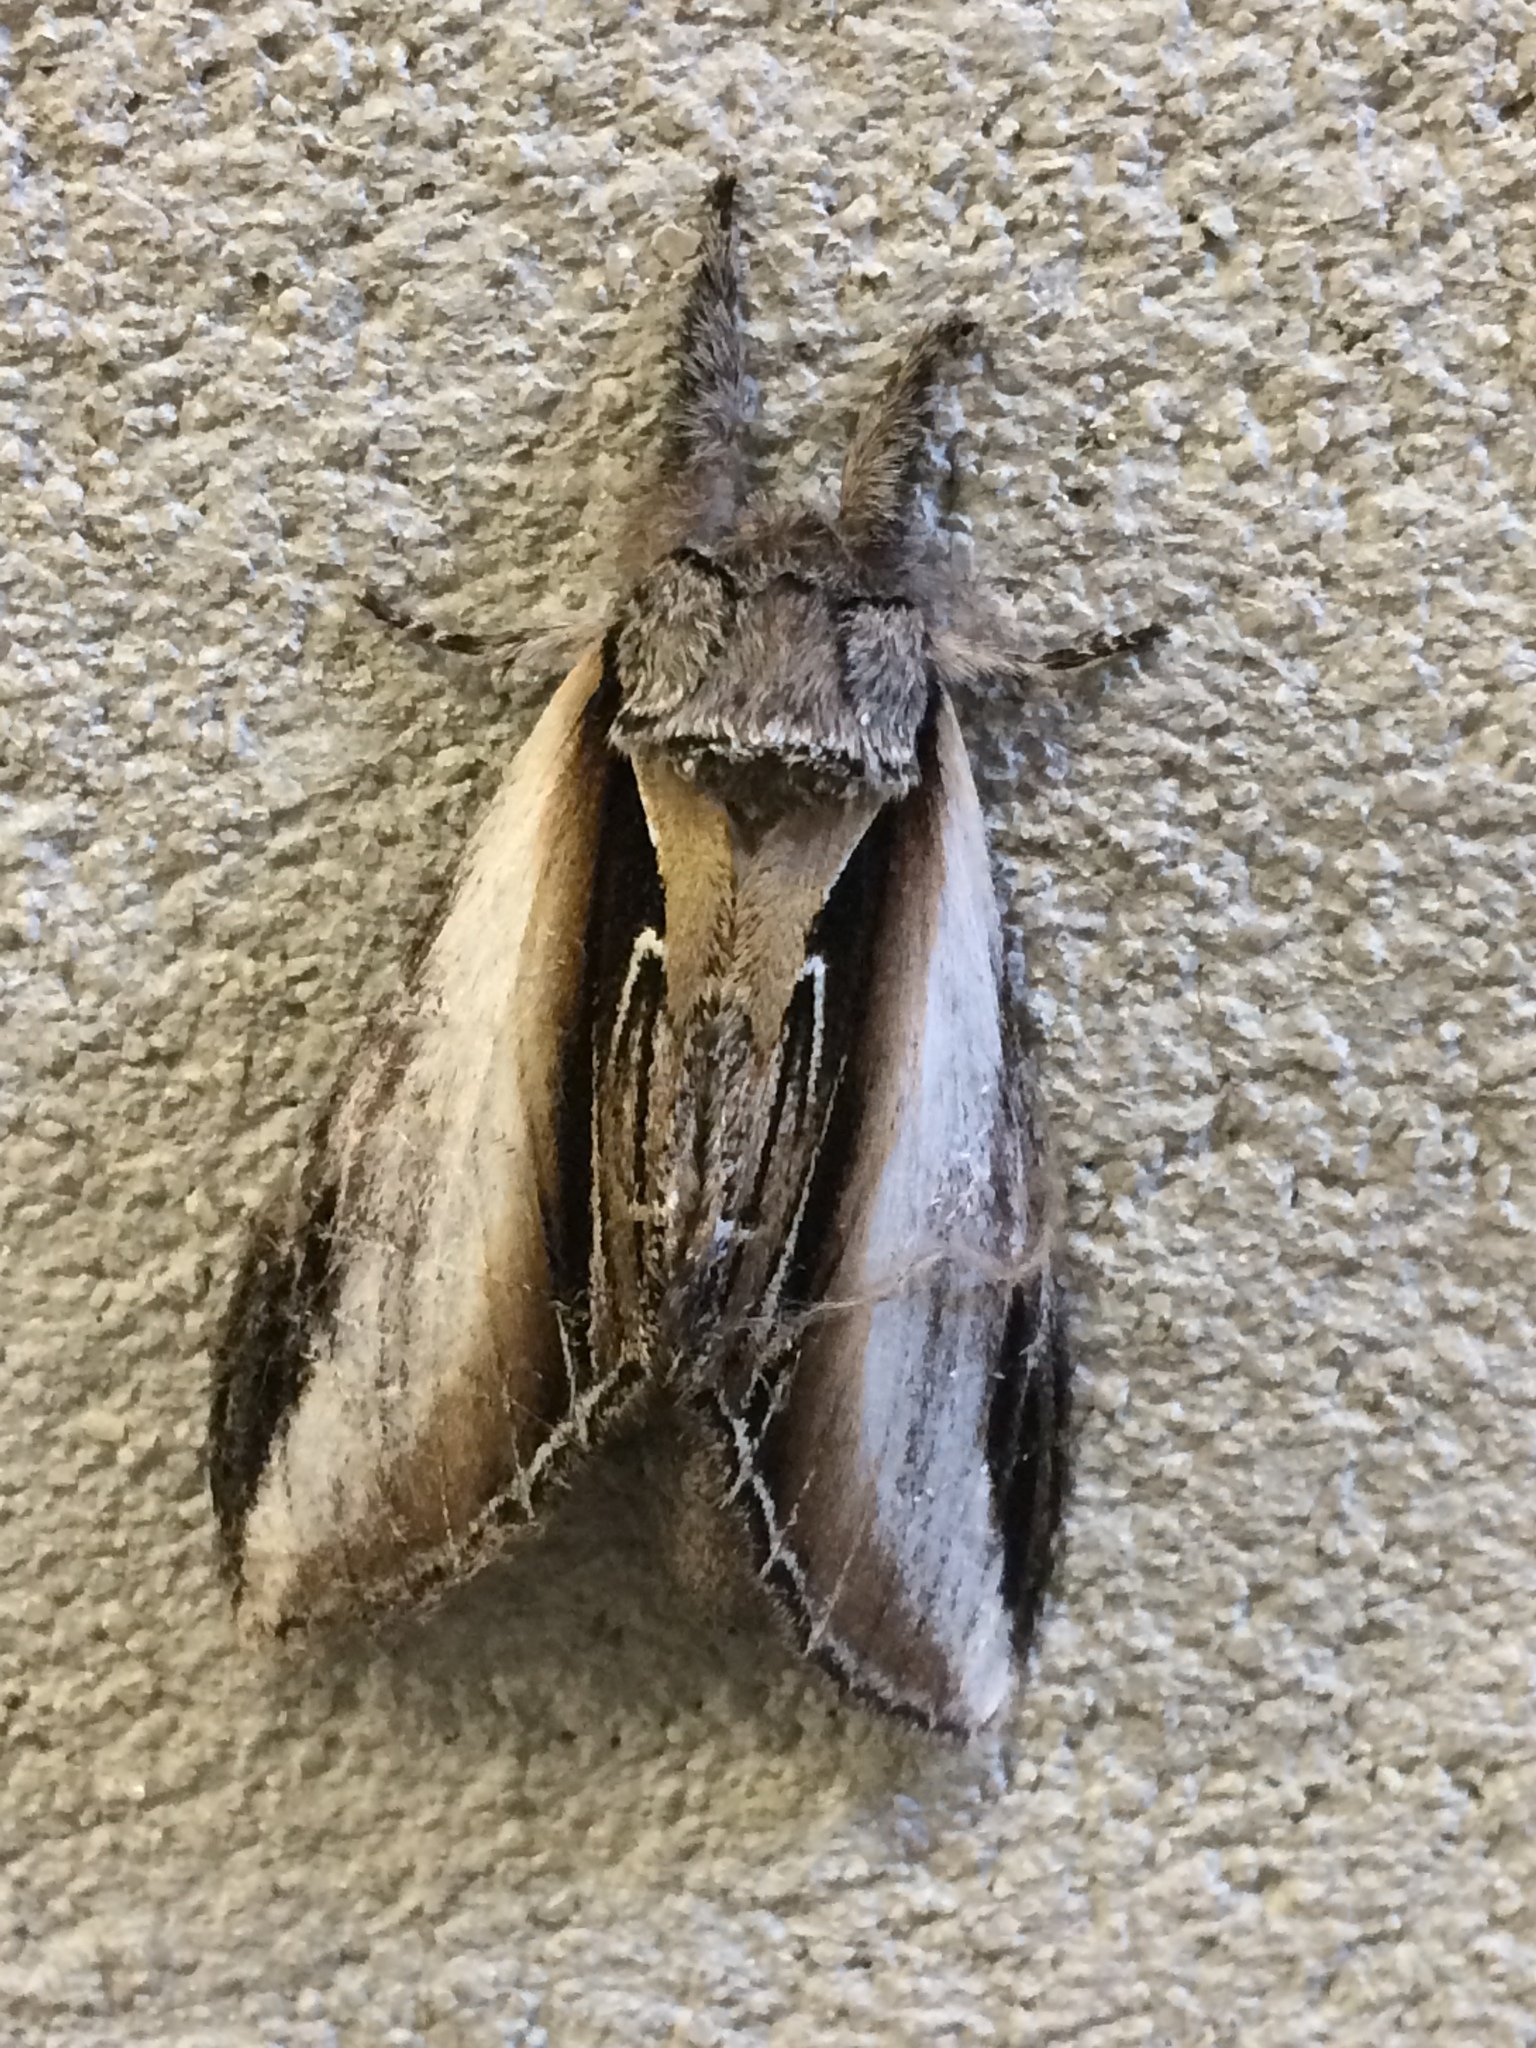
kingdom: Animalia
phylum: Arthropoda
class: Insecta
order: Lepidoptera
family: Notodontidae
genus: Pheosia
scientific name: Pheosia rimosa
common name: Black-rimmed prominent
